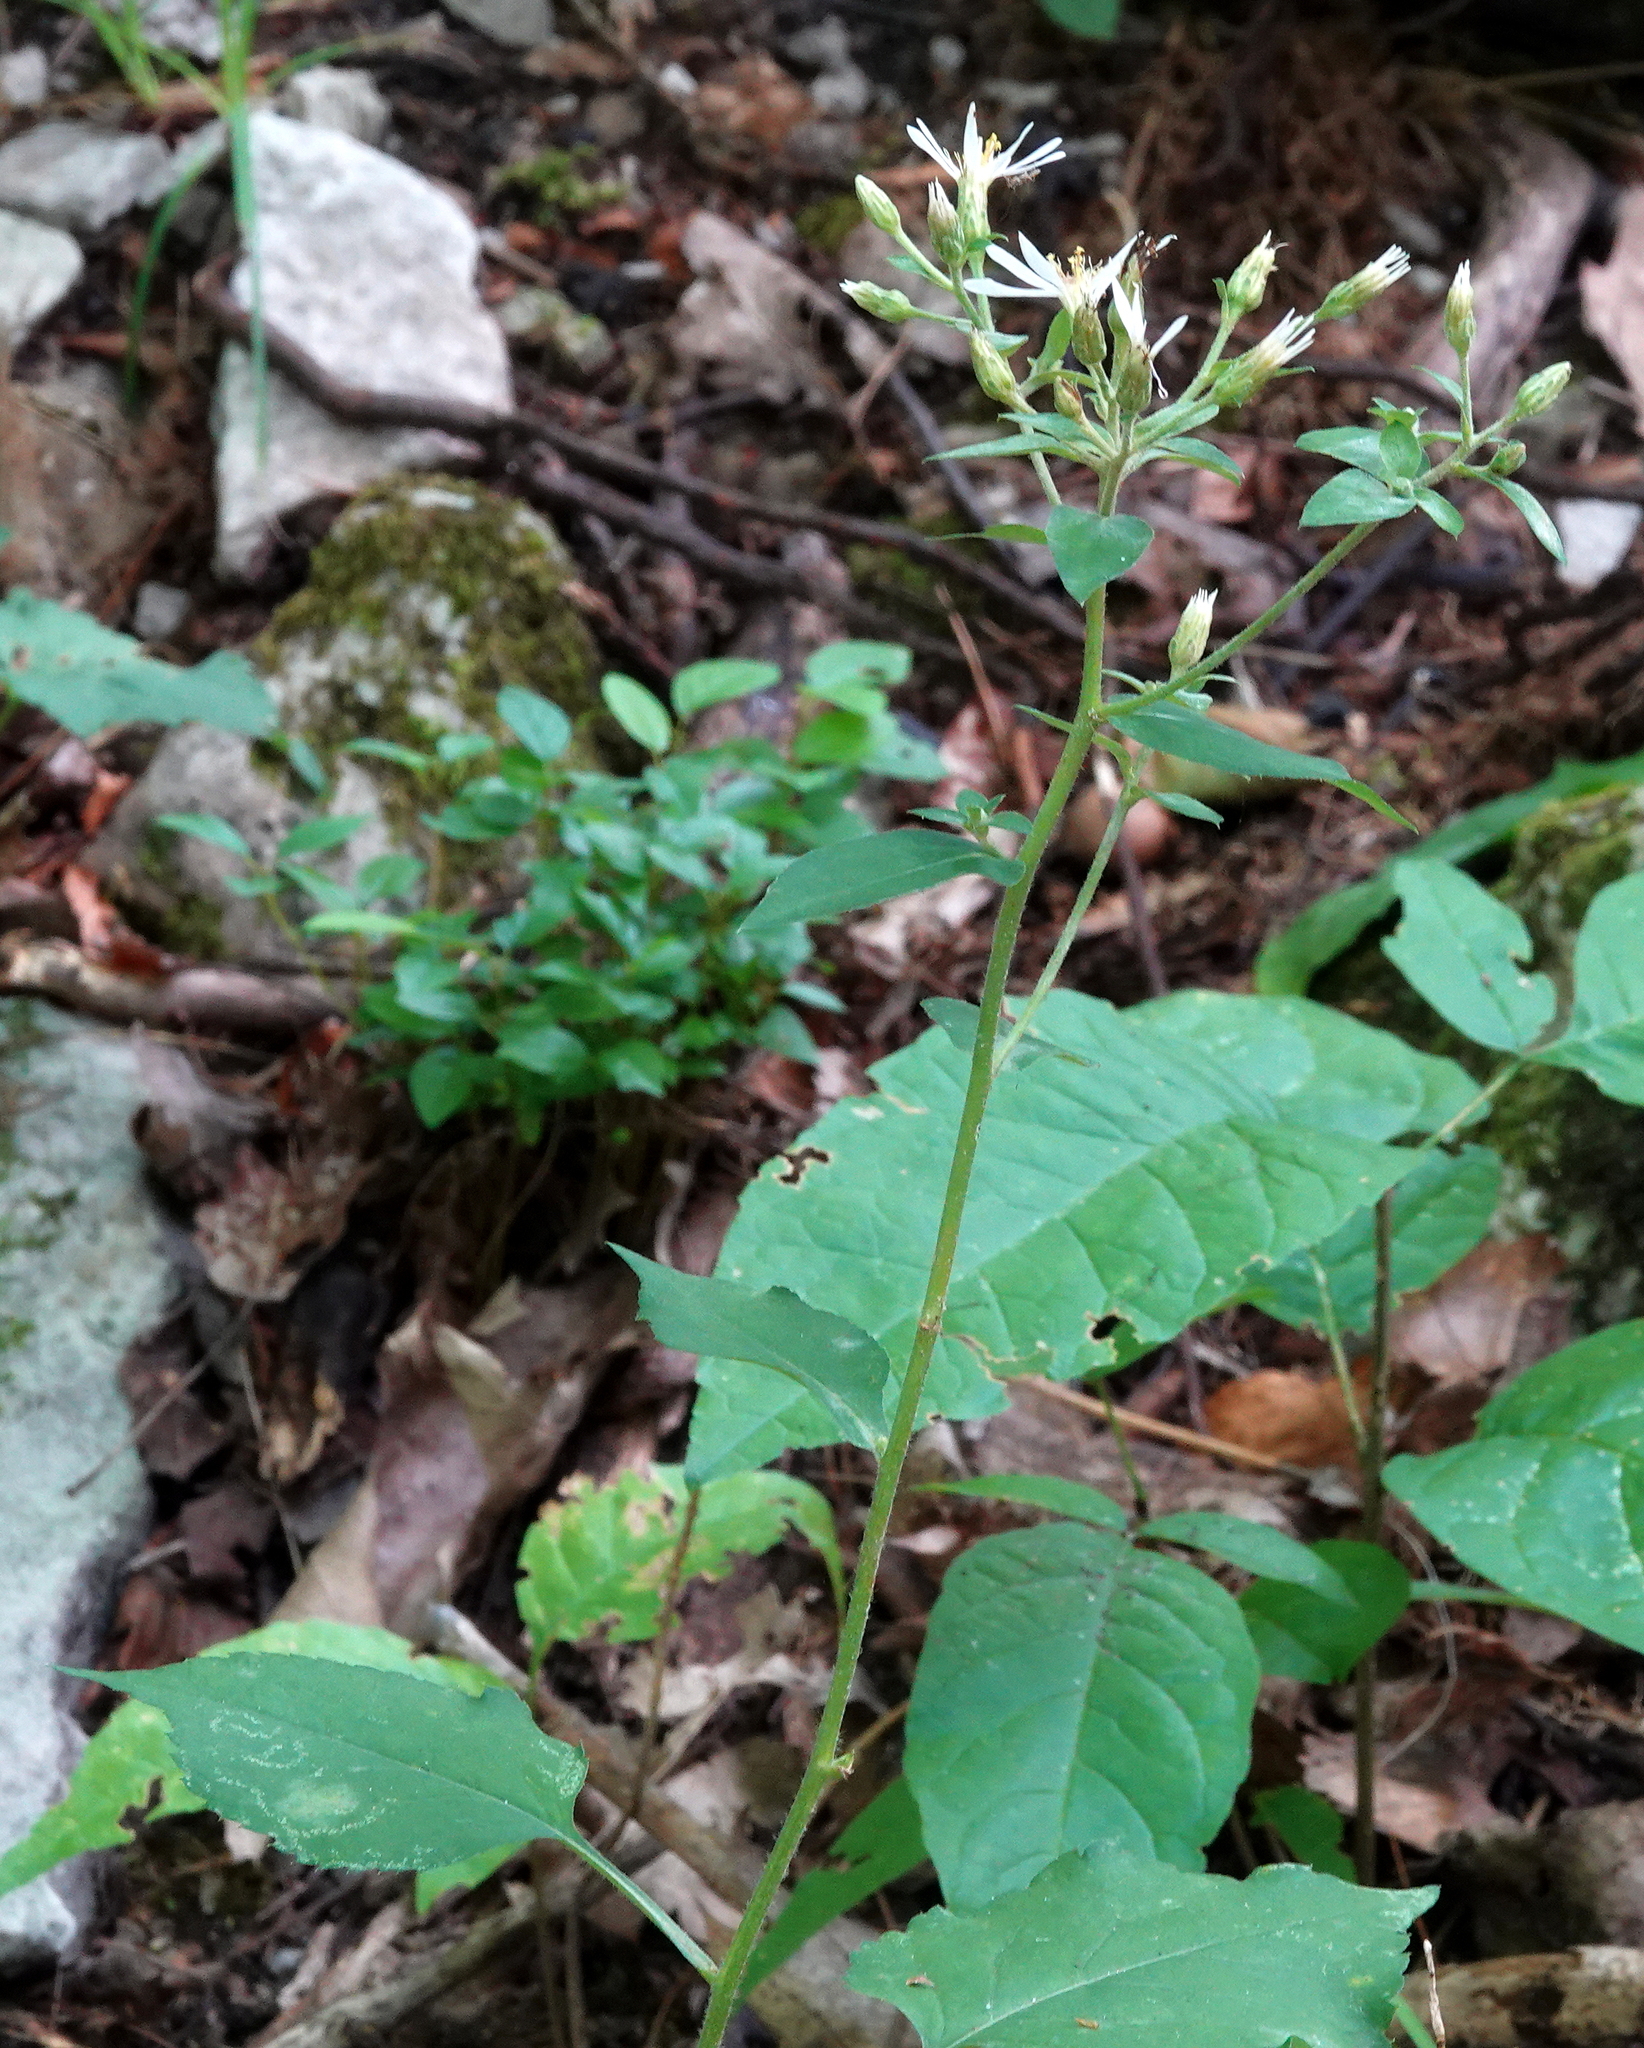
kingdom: Plantae
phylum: Tracheophyta
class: Magnoliopsida
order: Asterales
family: Asteraceae
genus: Eurybia
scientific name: Eurybia macrophylla
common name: Big-leaved aster
